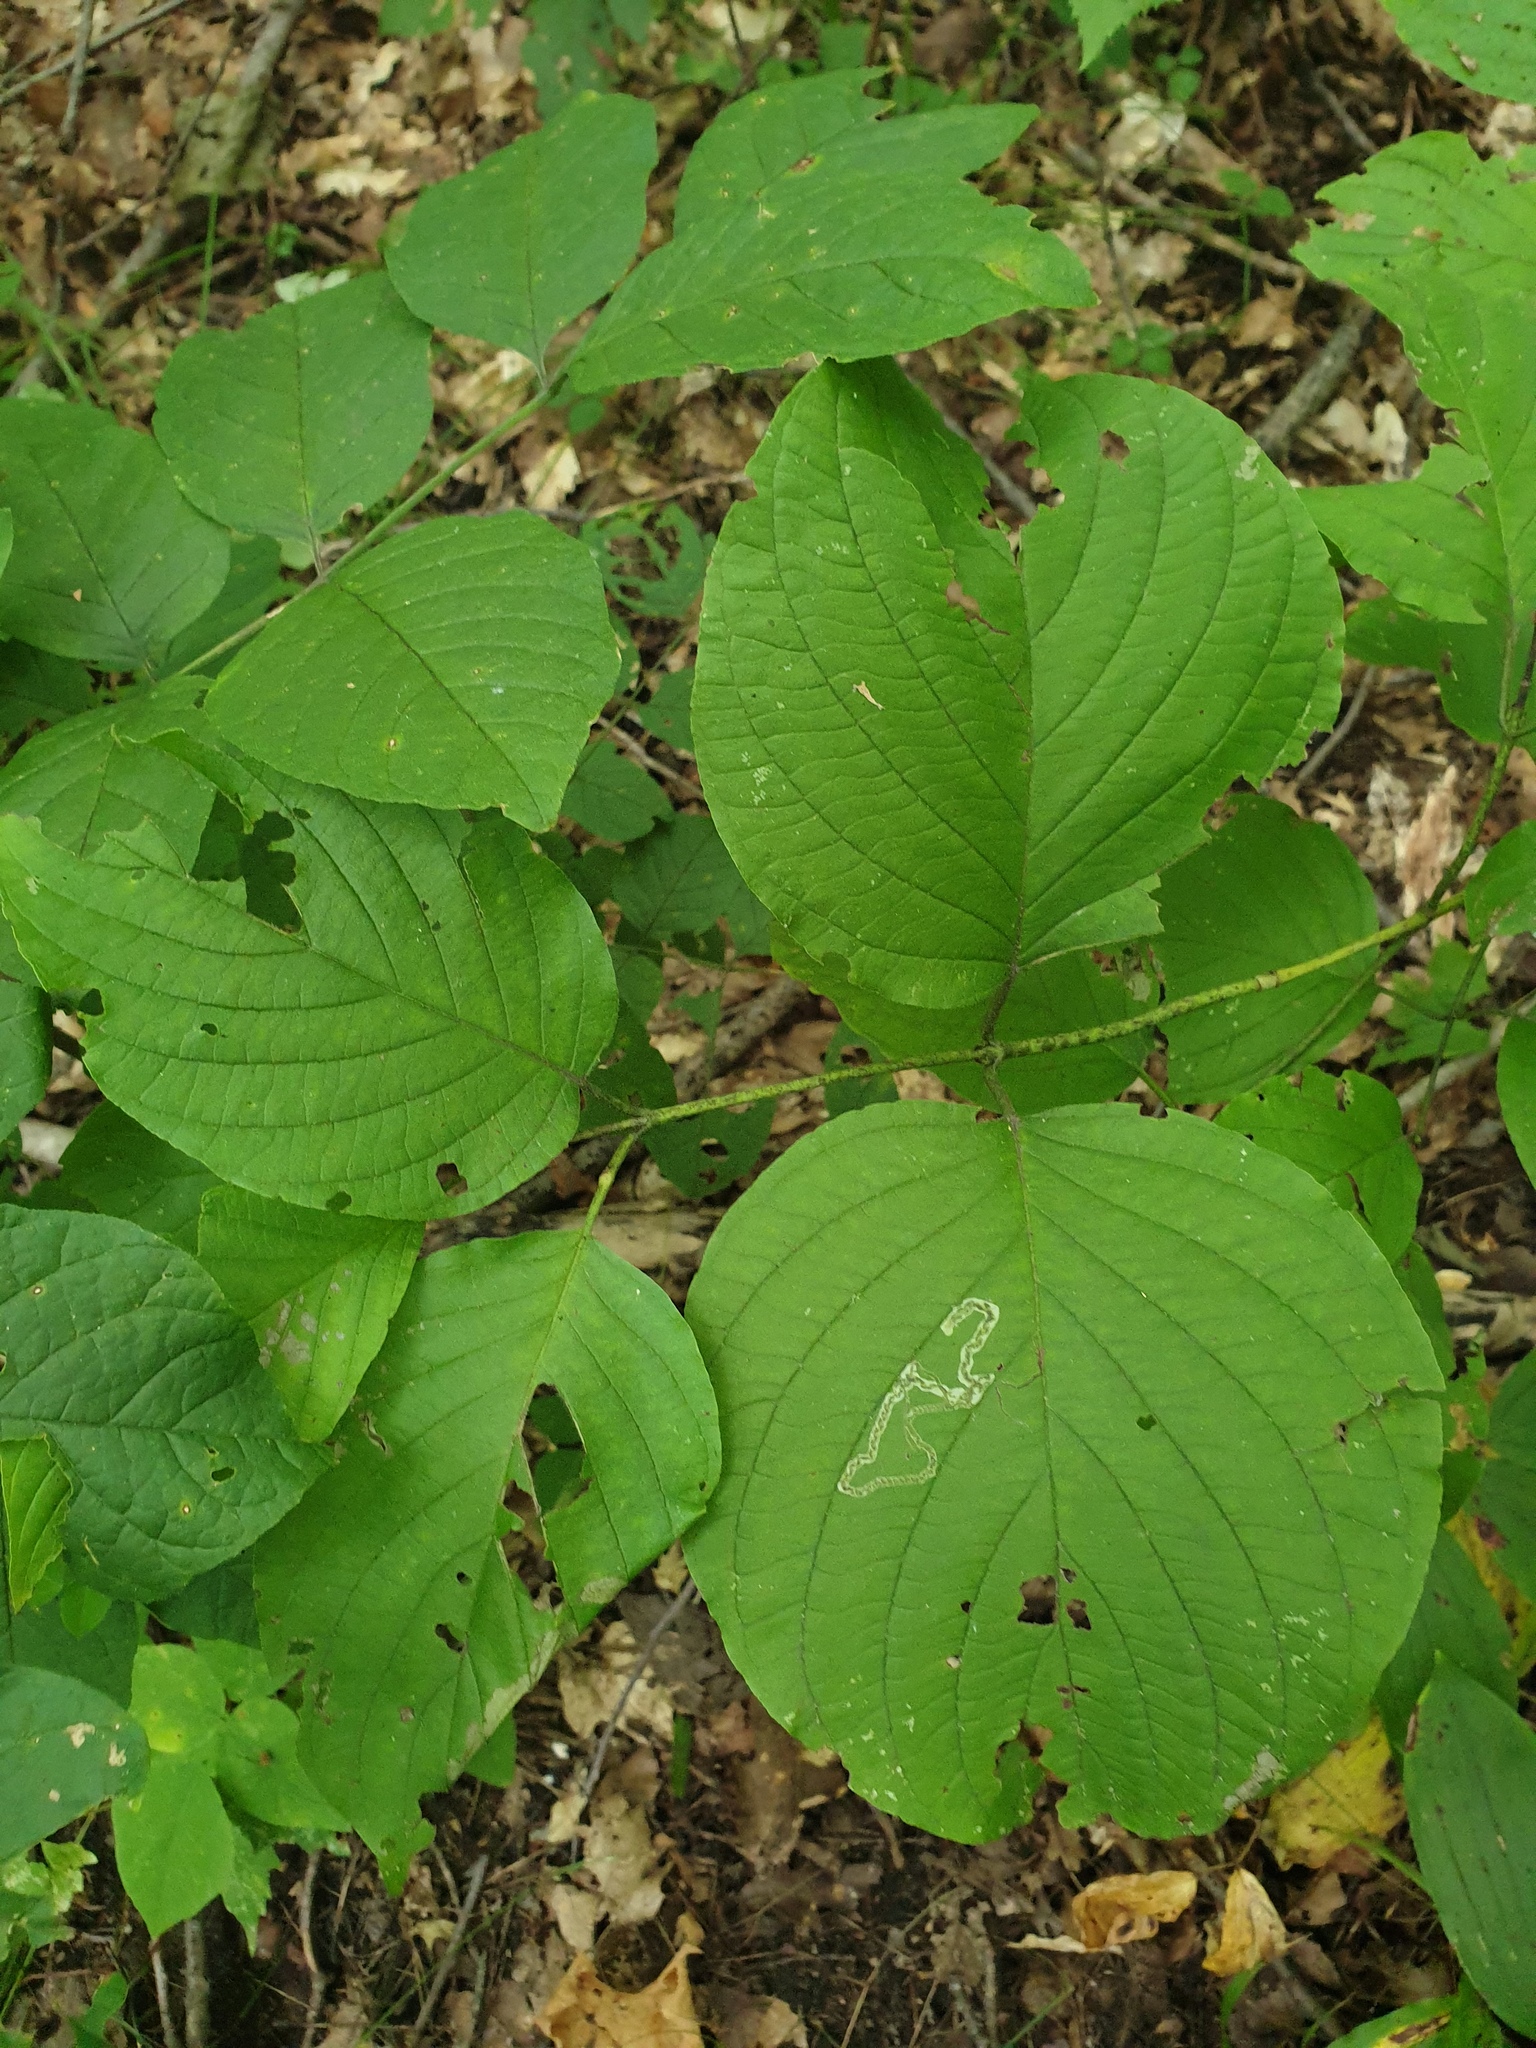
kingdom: Plantae
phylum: Tracheophyta
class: Magnoliopsida
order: Cornales
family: Cornaceae
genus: Cornus
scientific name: Cornus rugosa
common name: Round-leaf dogwood
